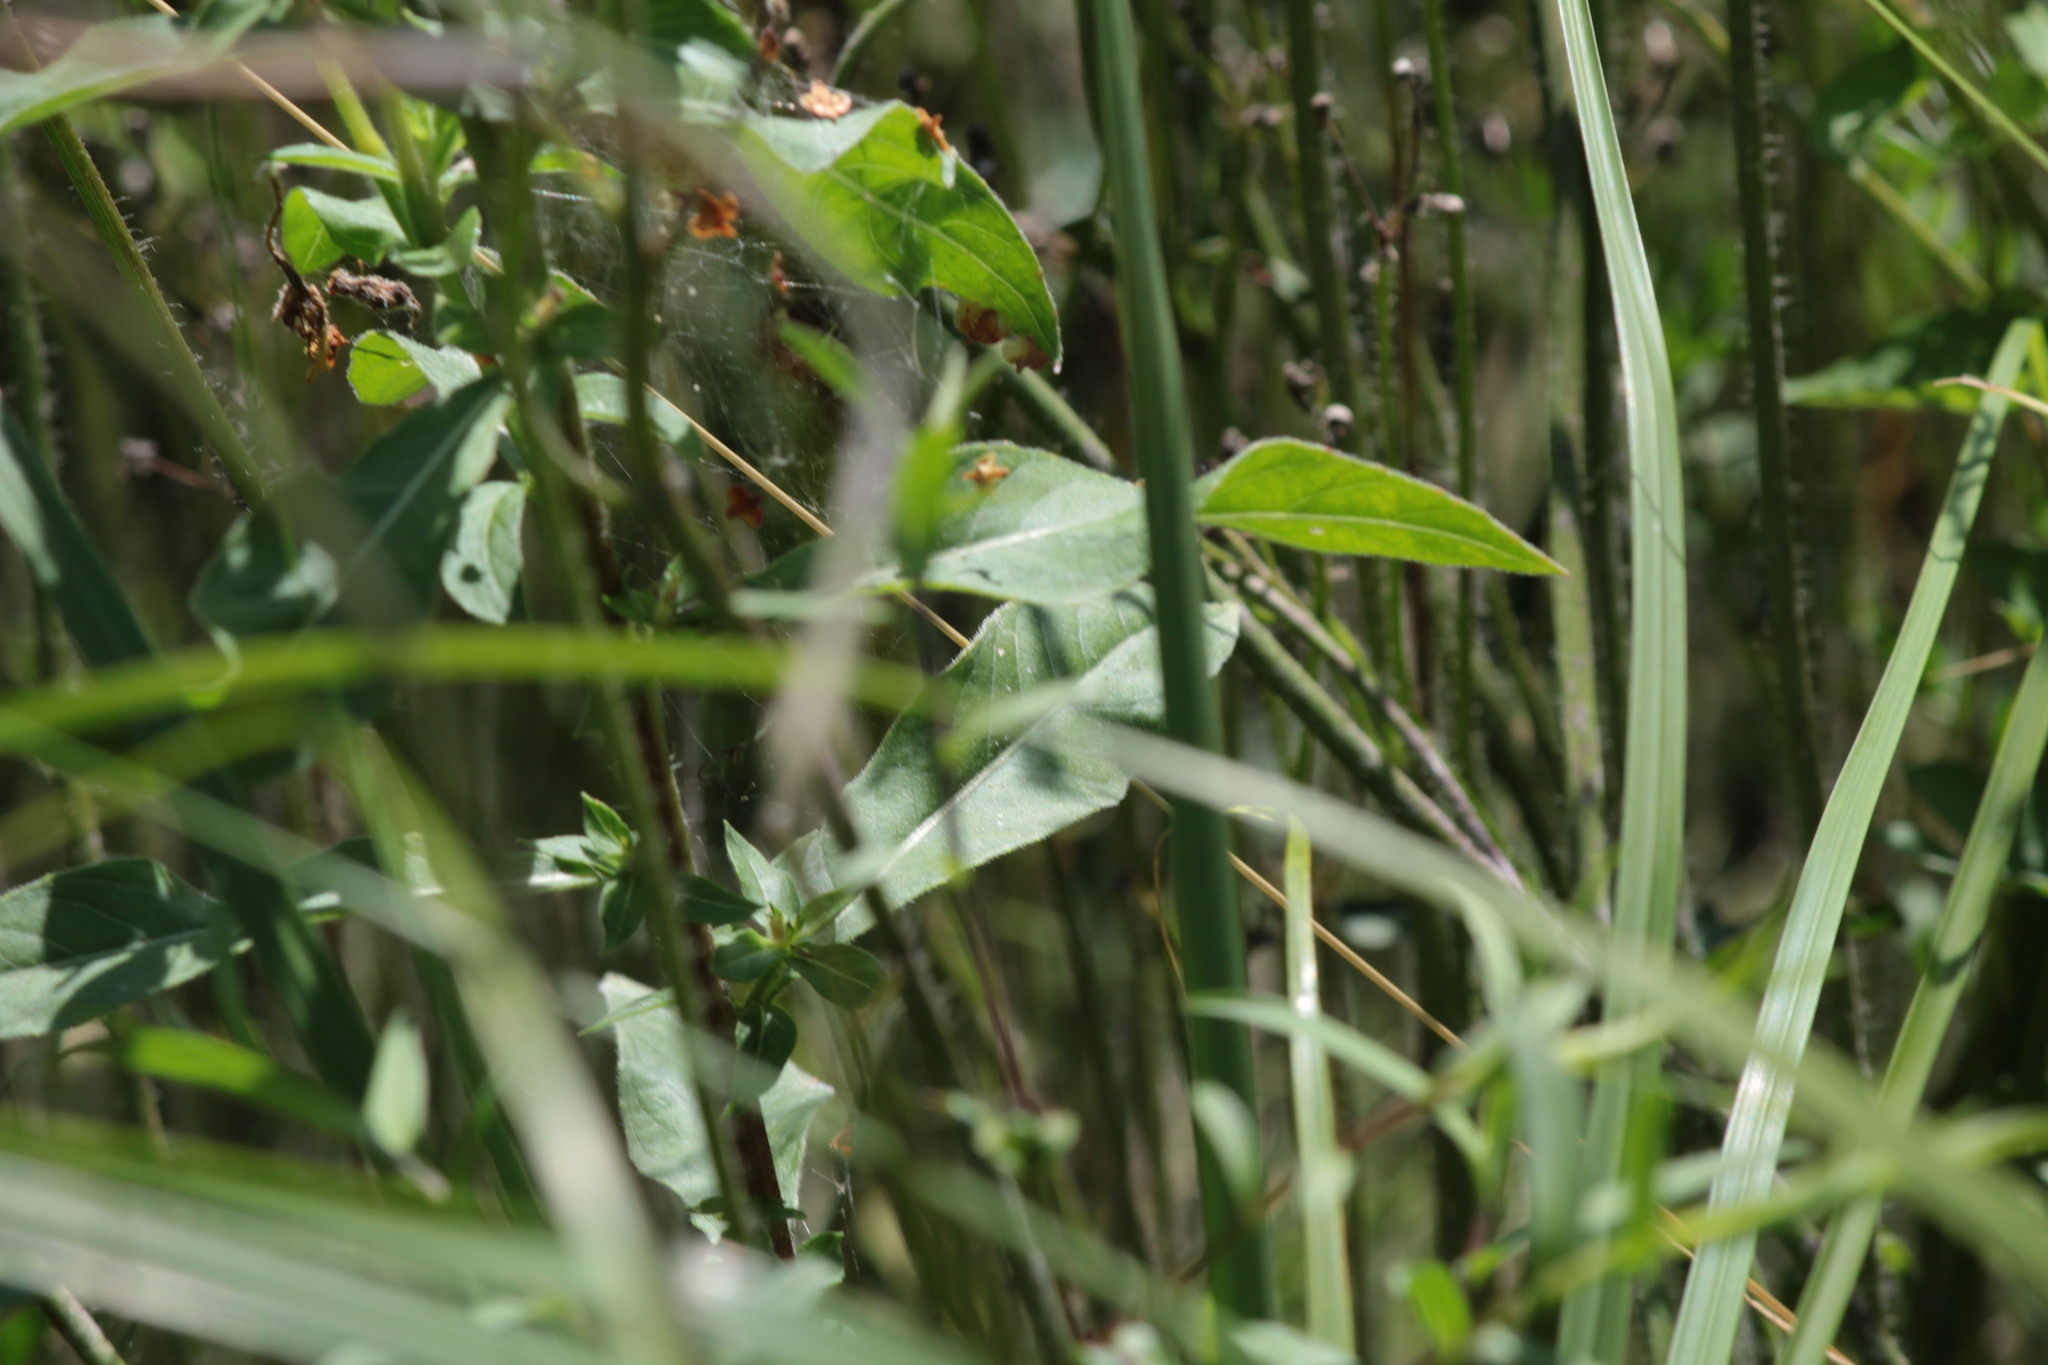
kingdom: Plantae
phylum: Tracheophyta
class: Magnoliopsida
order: Myrtales
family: Onagraceae
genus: Oenothera
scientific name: Oenothera parviflora
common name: Least evening-primrose
